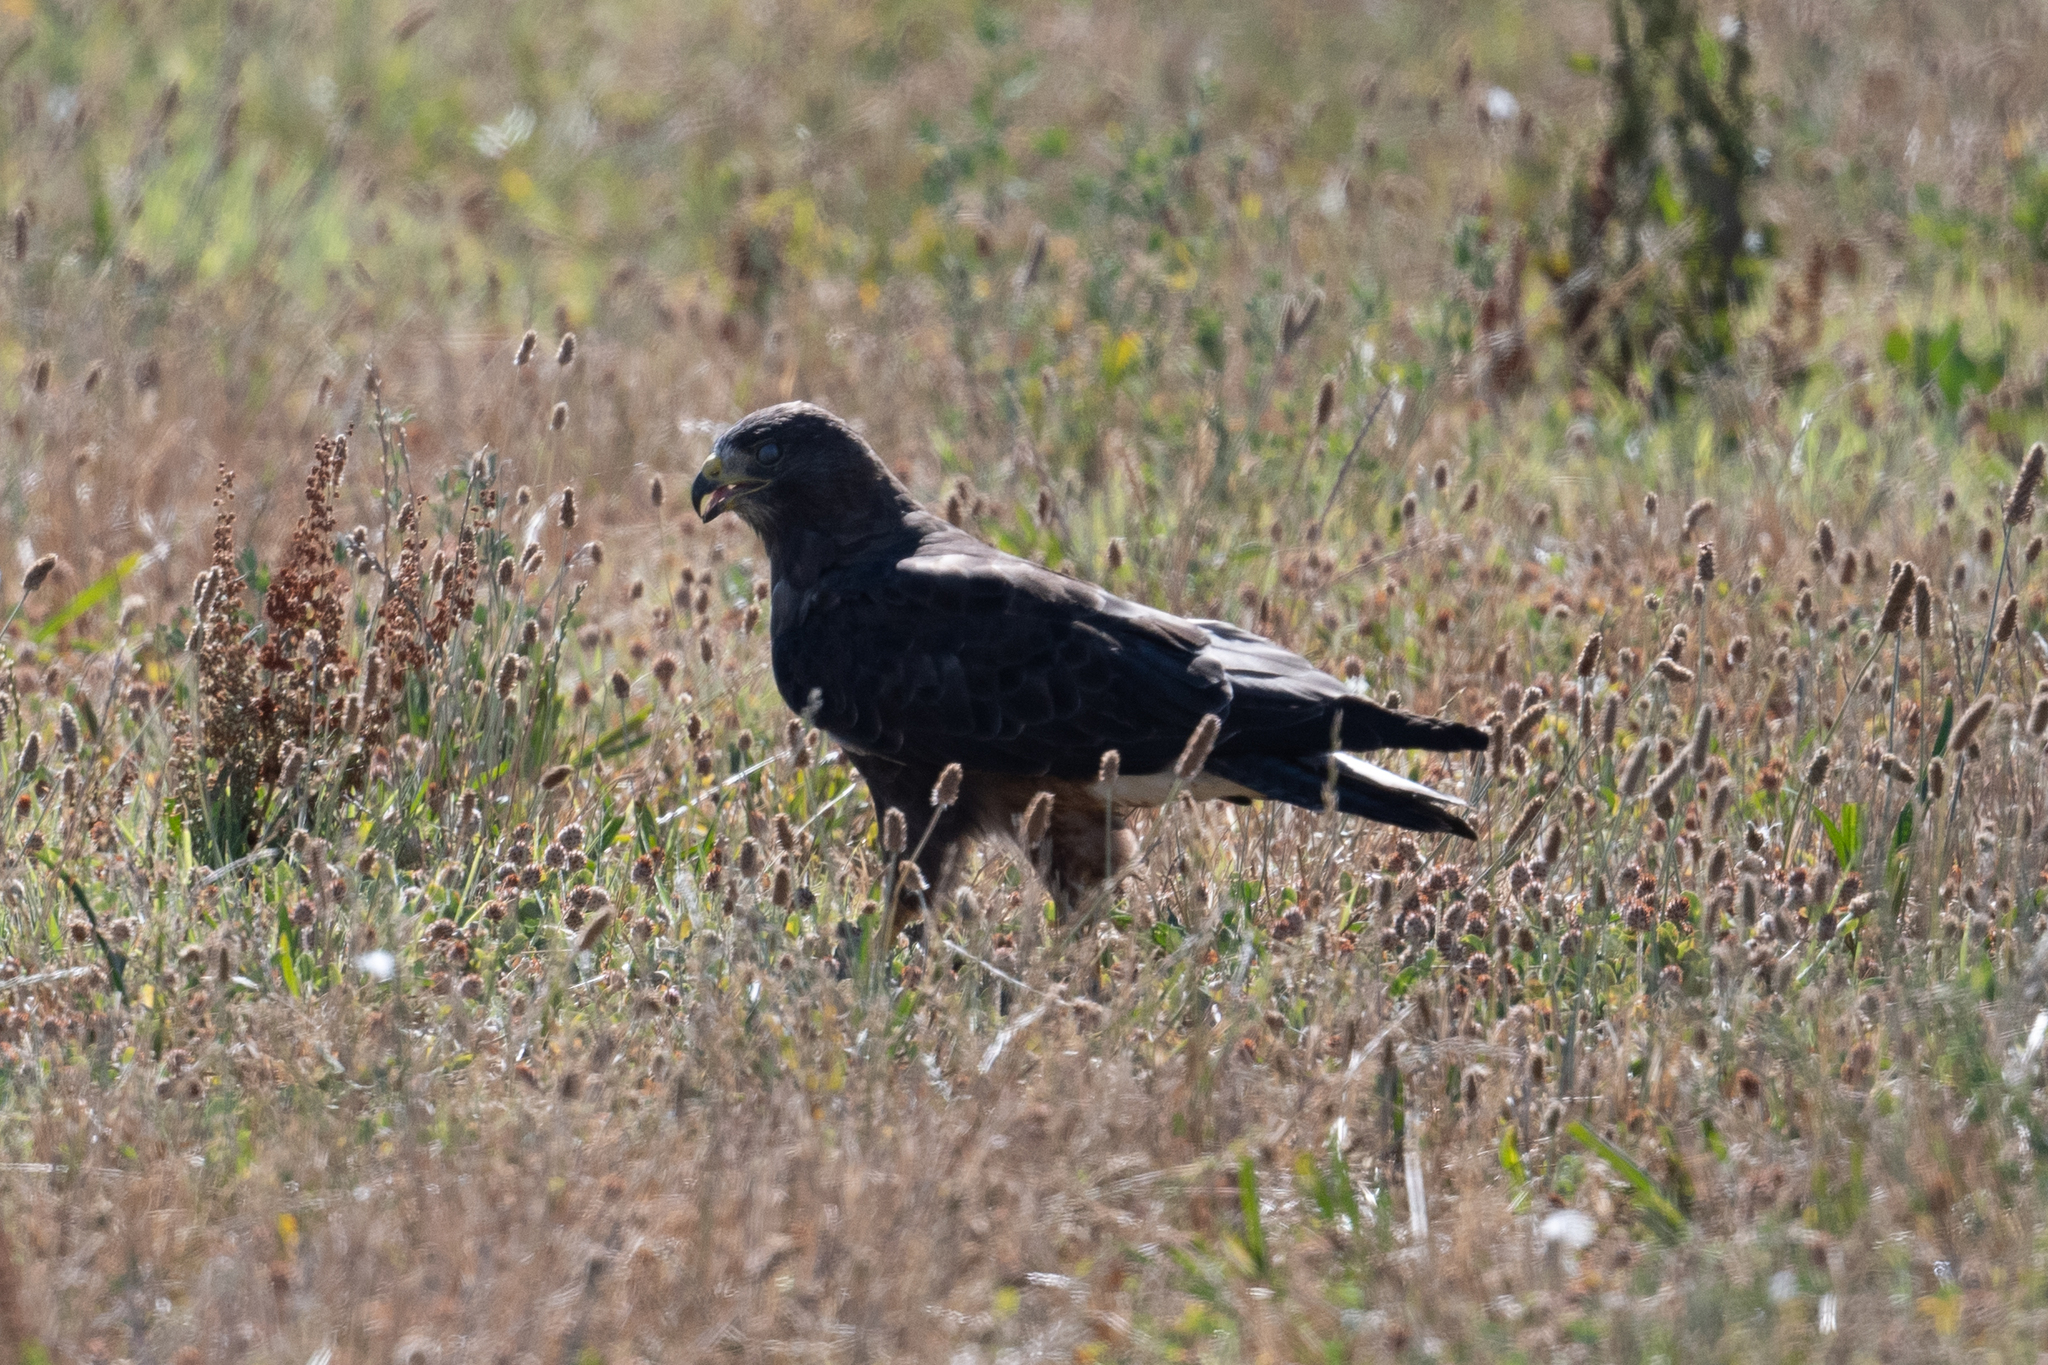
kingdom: Animalia
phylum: Chordata
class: Aves
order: Accipitriformes
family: Accipitridae
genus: Buteo
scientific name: Buteo swainsoni
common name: Swainson's hawk
